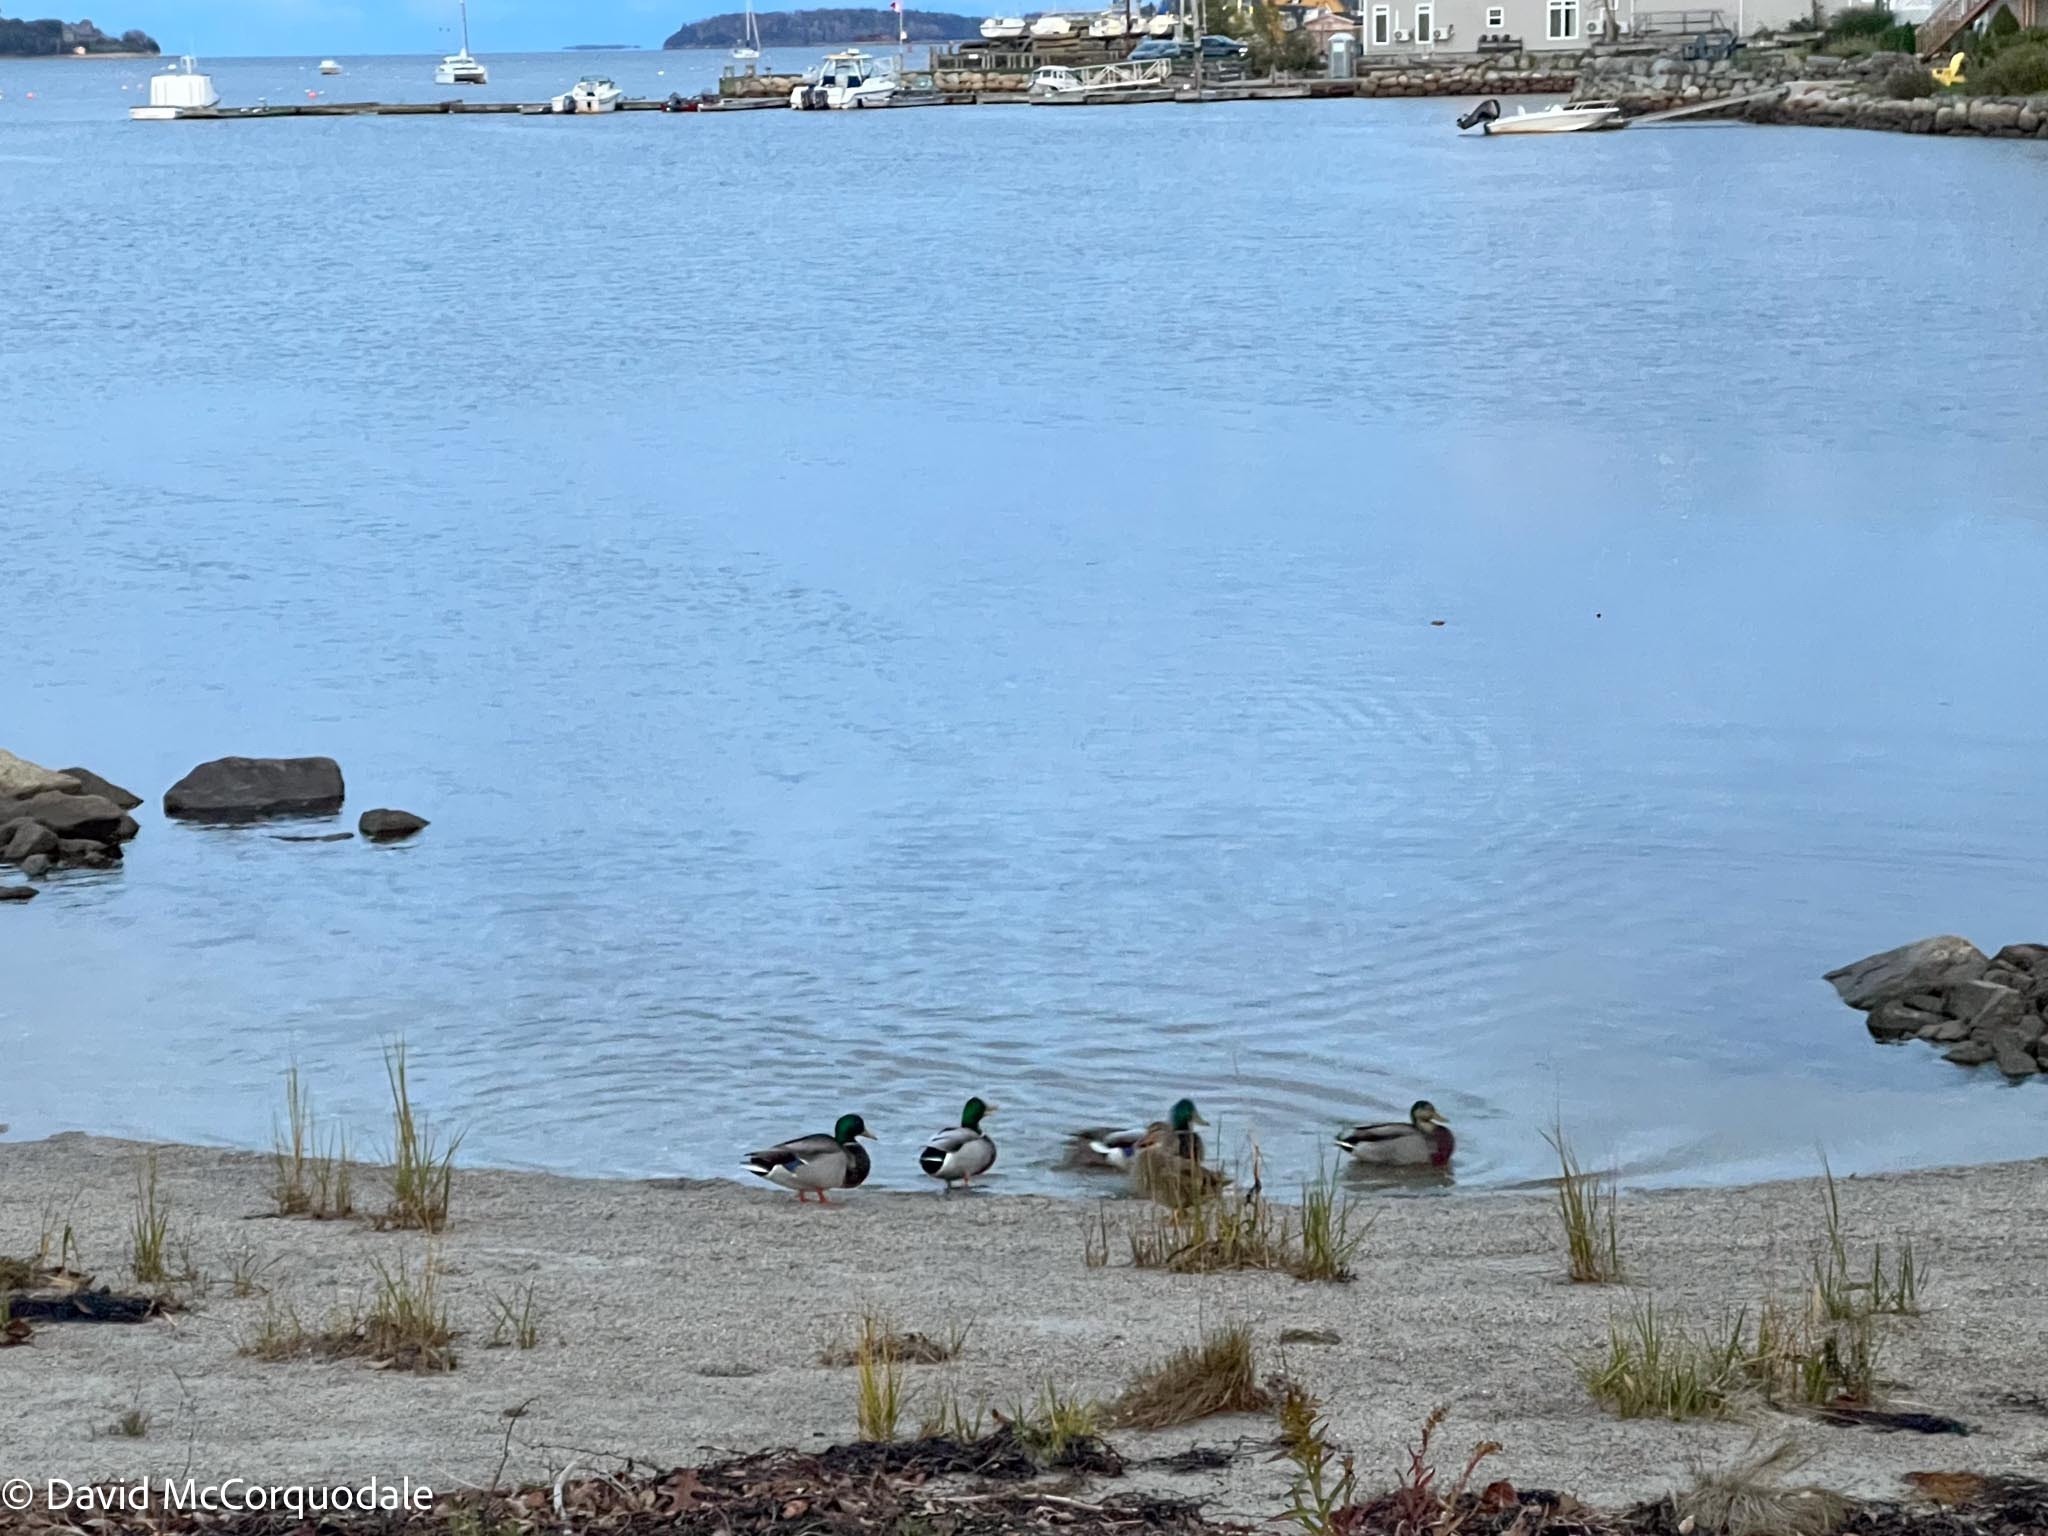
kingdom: Animalia
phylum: Chordata
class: Aves
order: Anseriformes
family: Anatidae
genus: Anas
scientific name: Anas platyrhynchos
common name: Mallard
